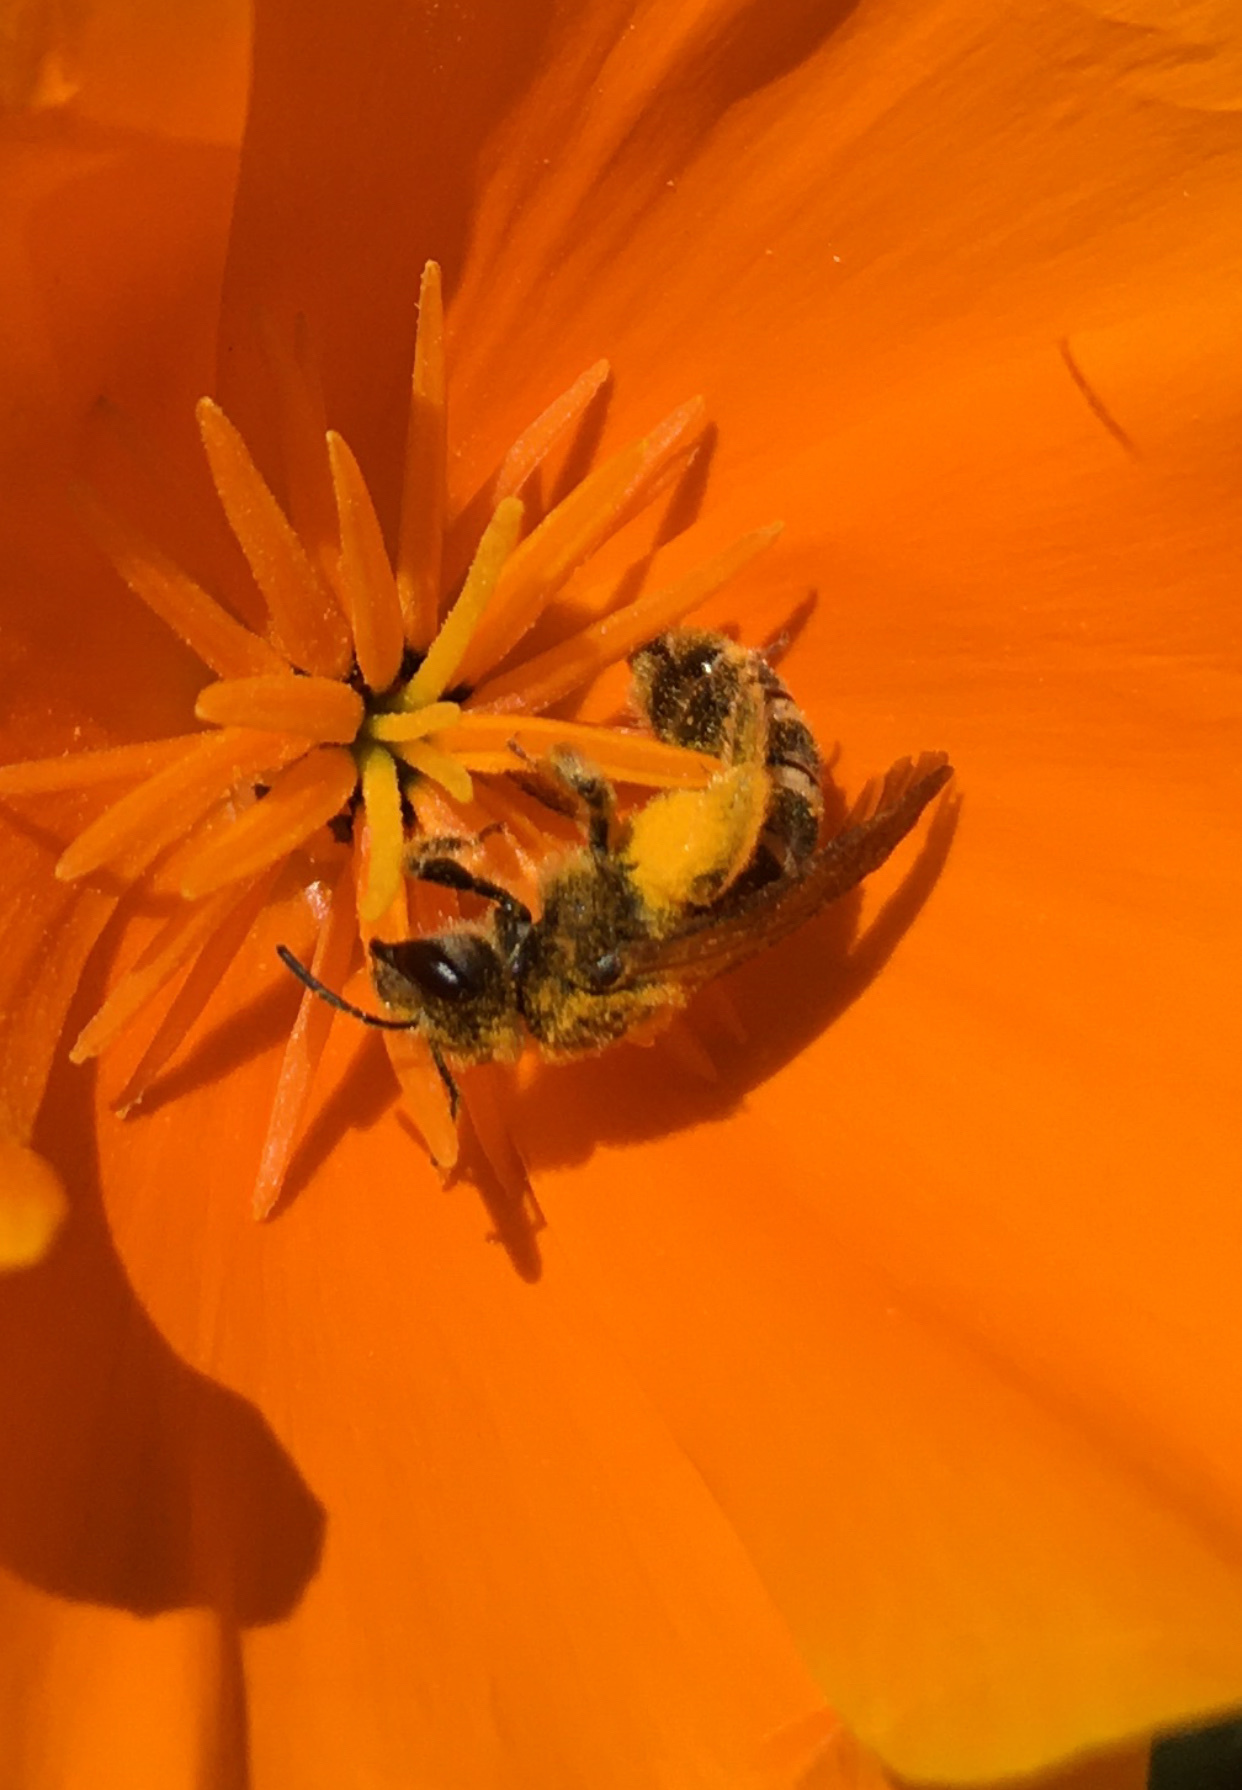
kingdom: Animalia
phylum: Arthropoda
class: Insecta
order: Hymenoptera
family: Halictidae
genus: Halictus
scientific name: Halictus farinosus
